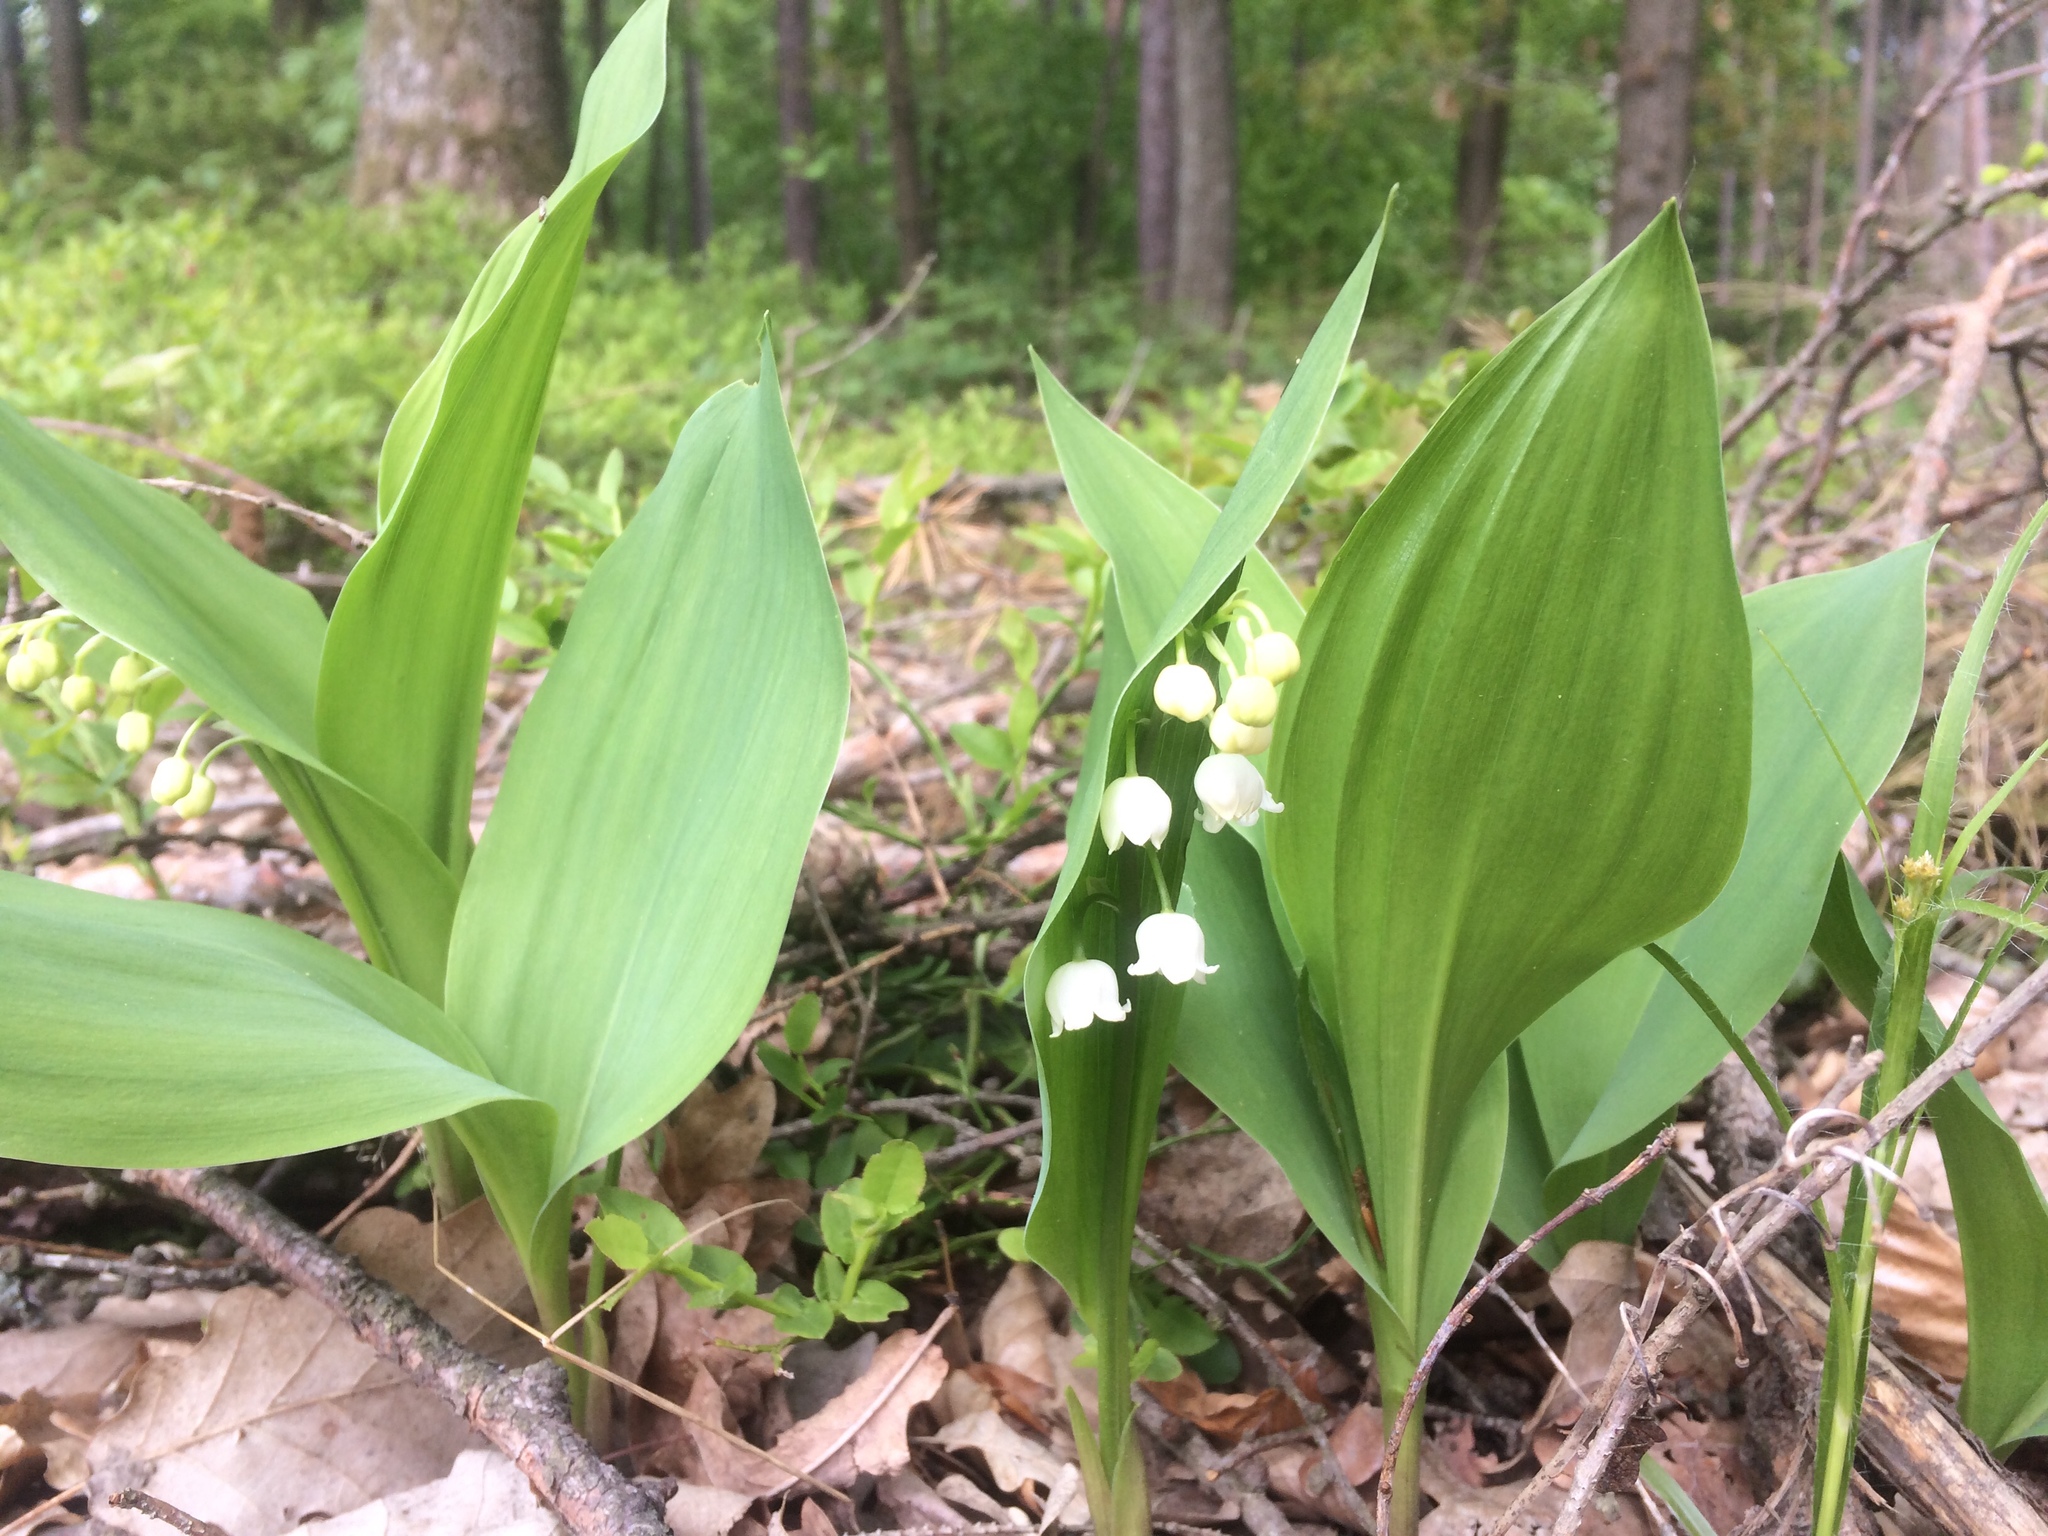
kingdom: Plantae
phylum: Tracheophyta
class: Liliopsida
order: Asparagales
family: Asparagaceae
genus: Convallaria
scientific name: Convallaria majalis
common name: Lily-of-the-valley
